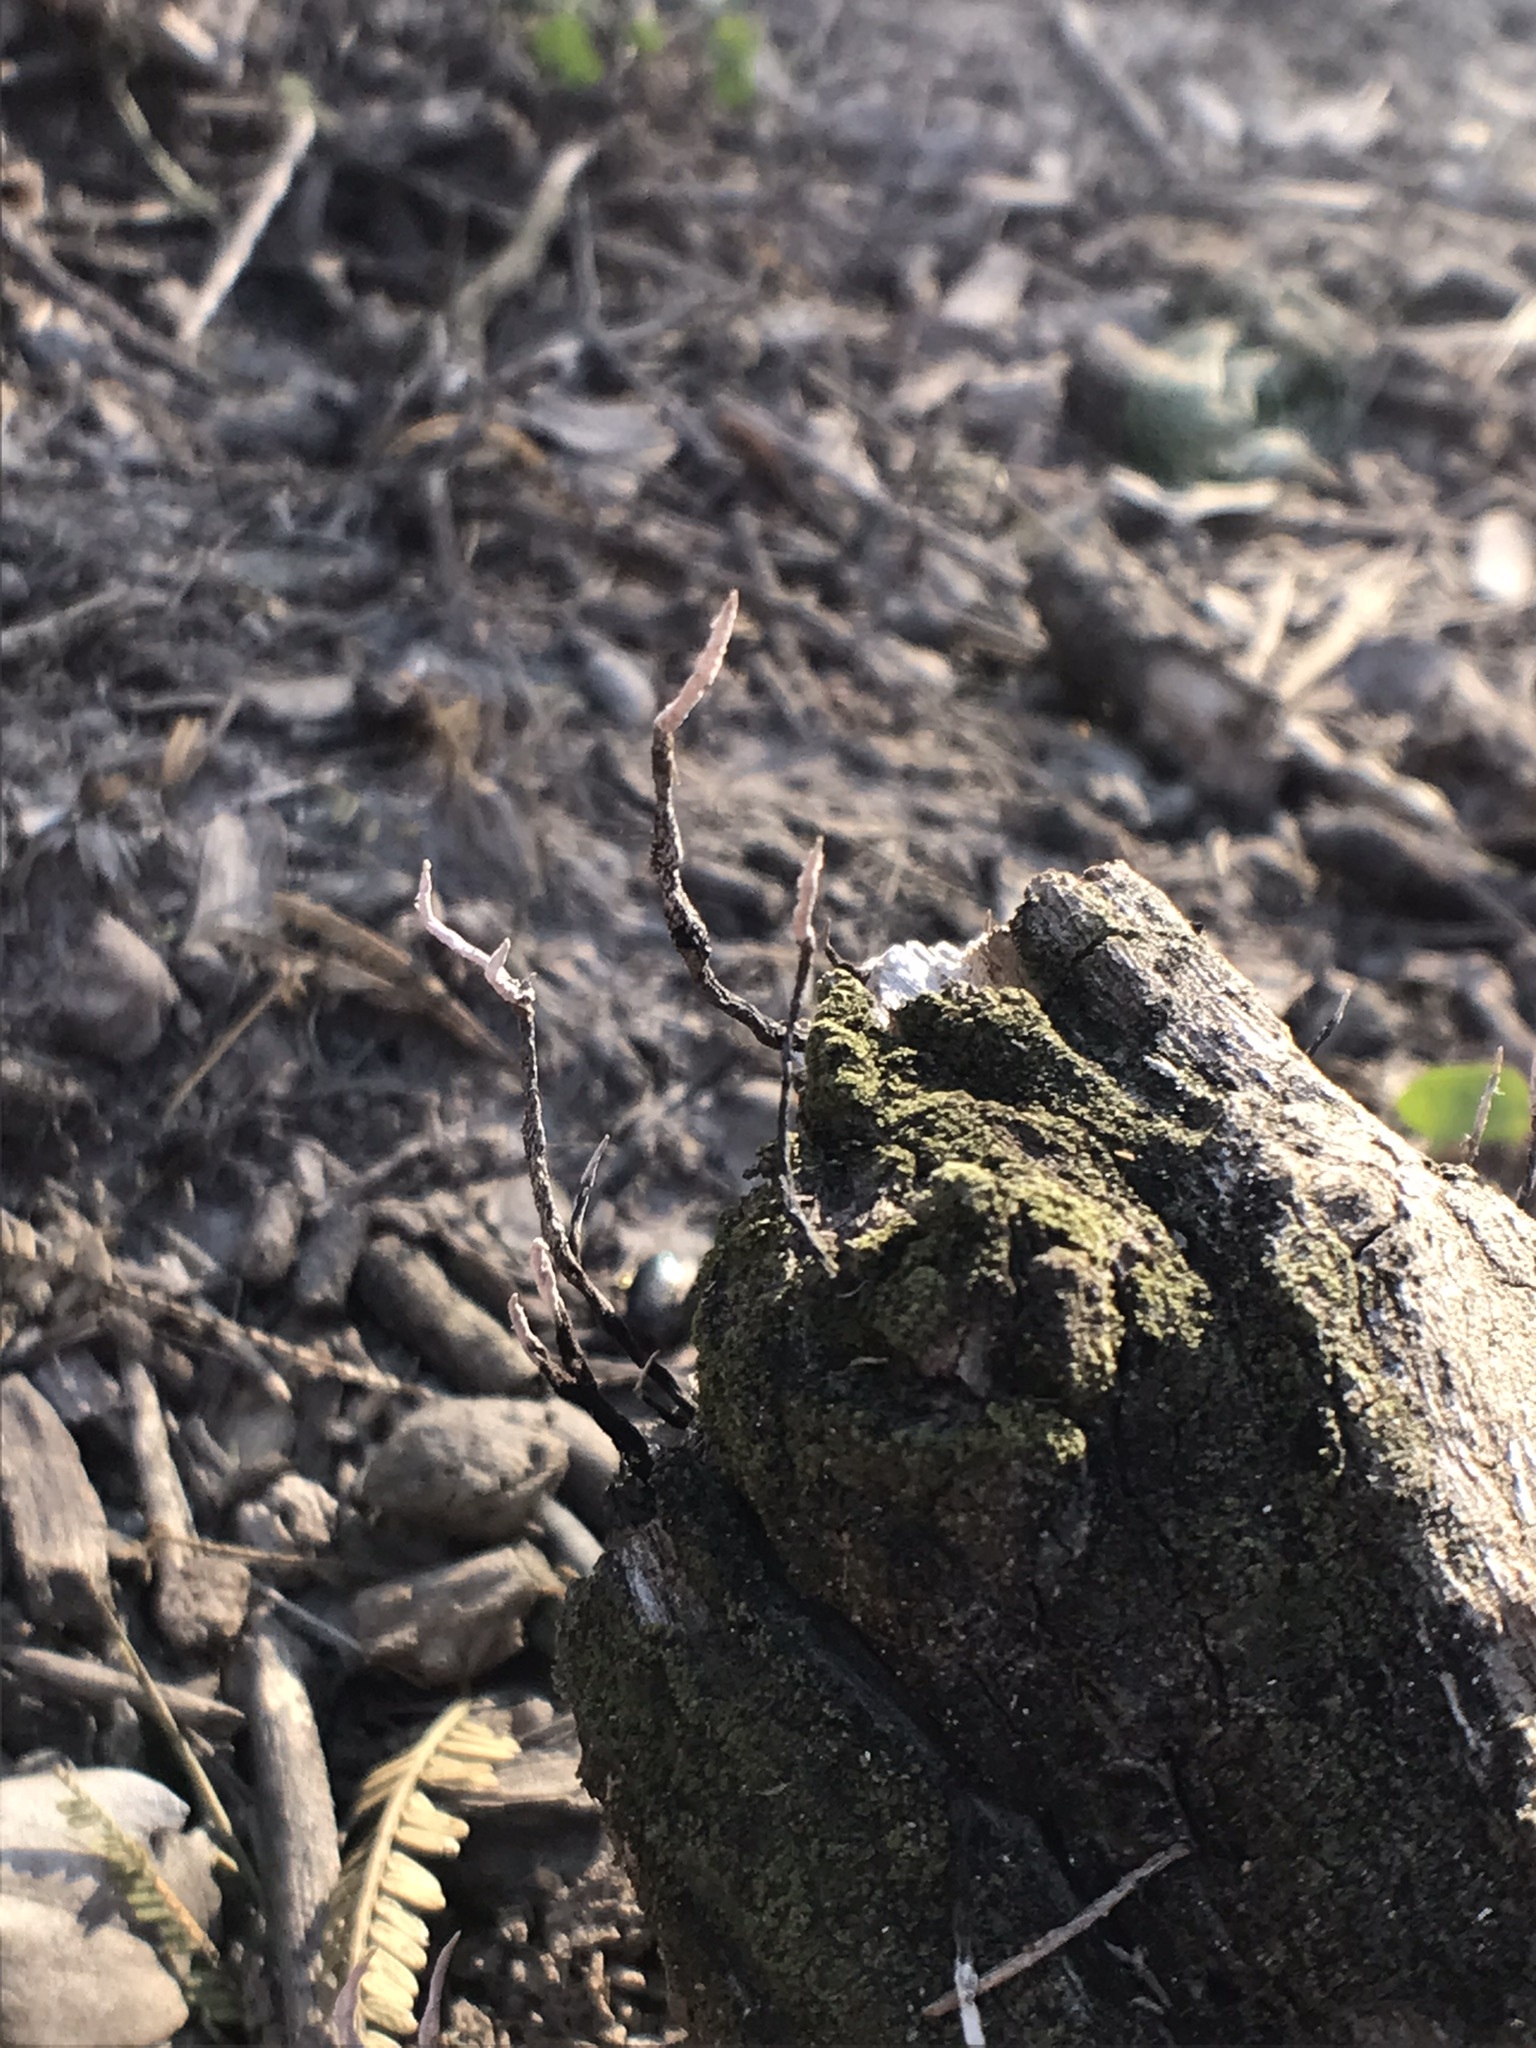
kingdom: Fungi
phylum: Ascomycota
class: Sordariomycetes
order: Xylariales
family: Xylariaceae
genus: Xylaria
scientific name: Xylaria filiformis
